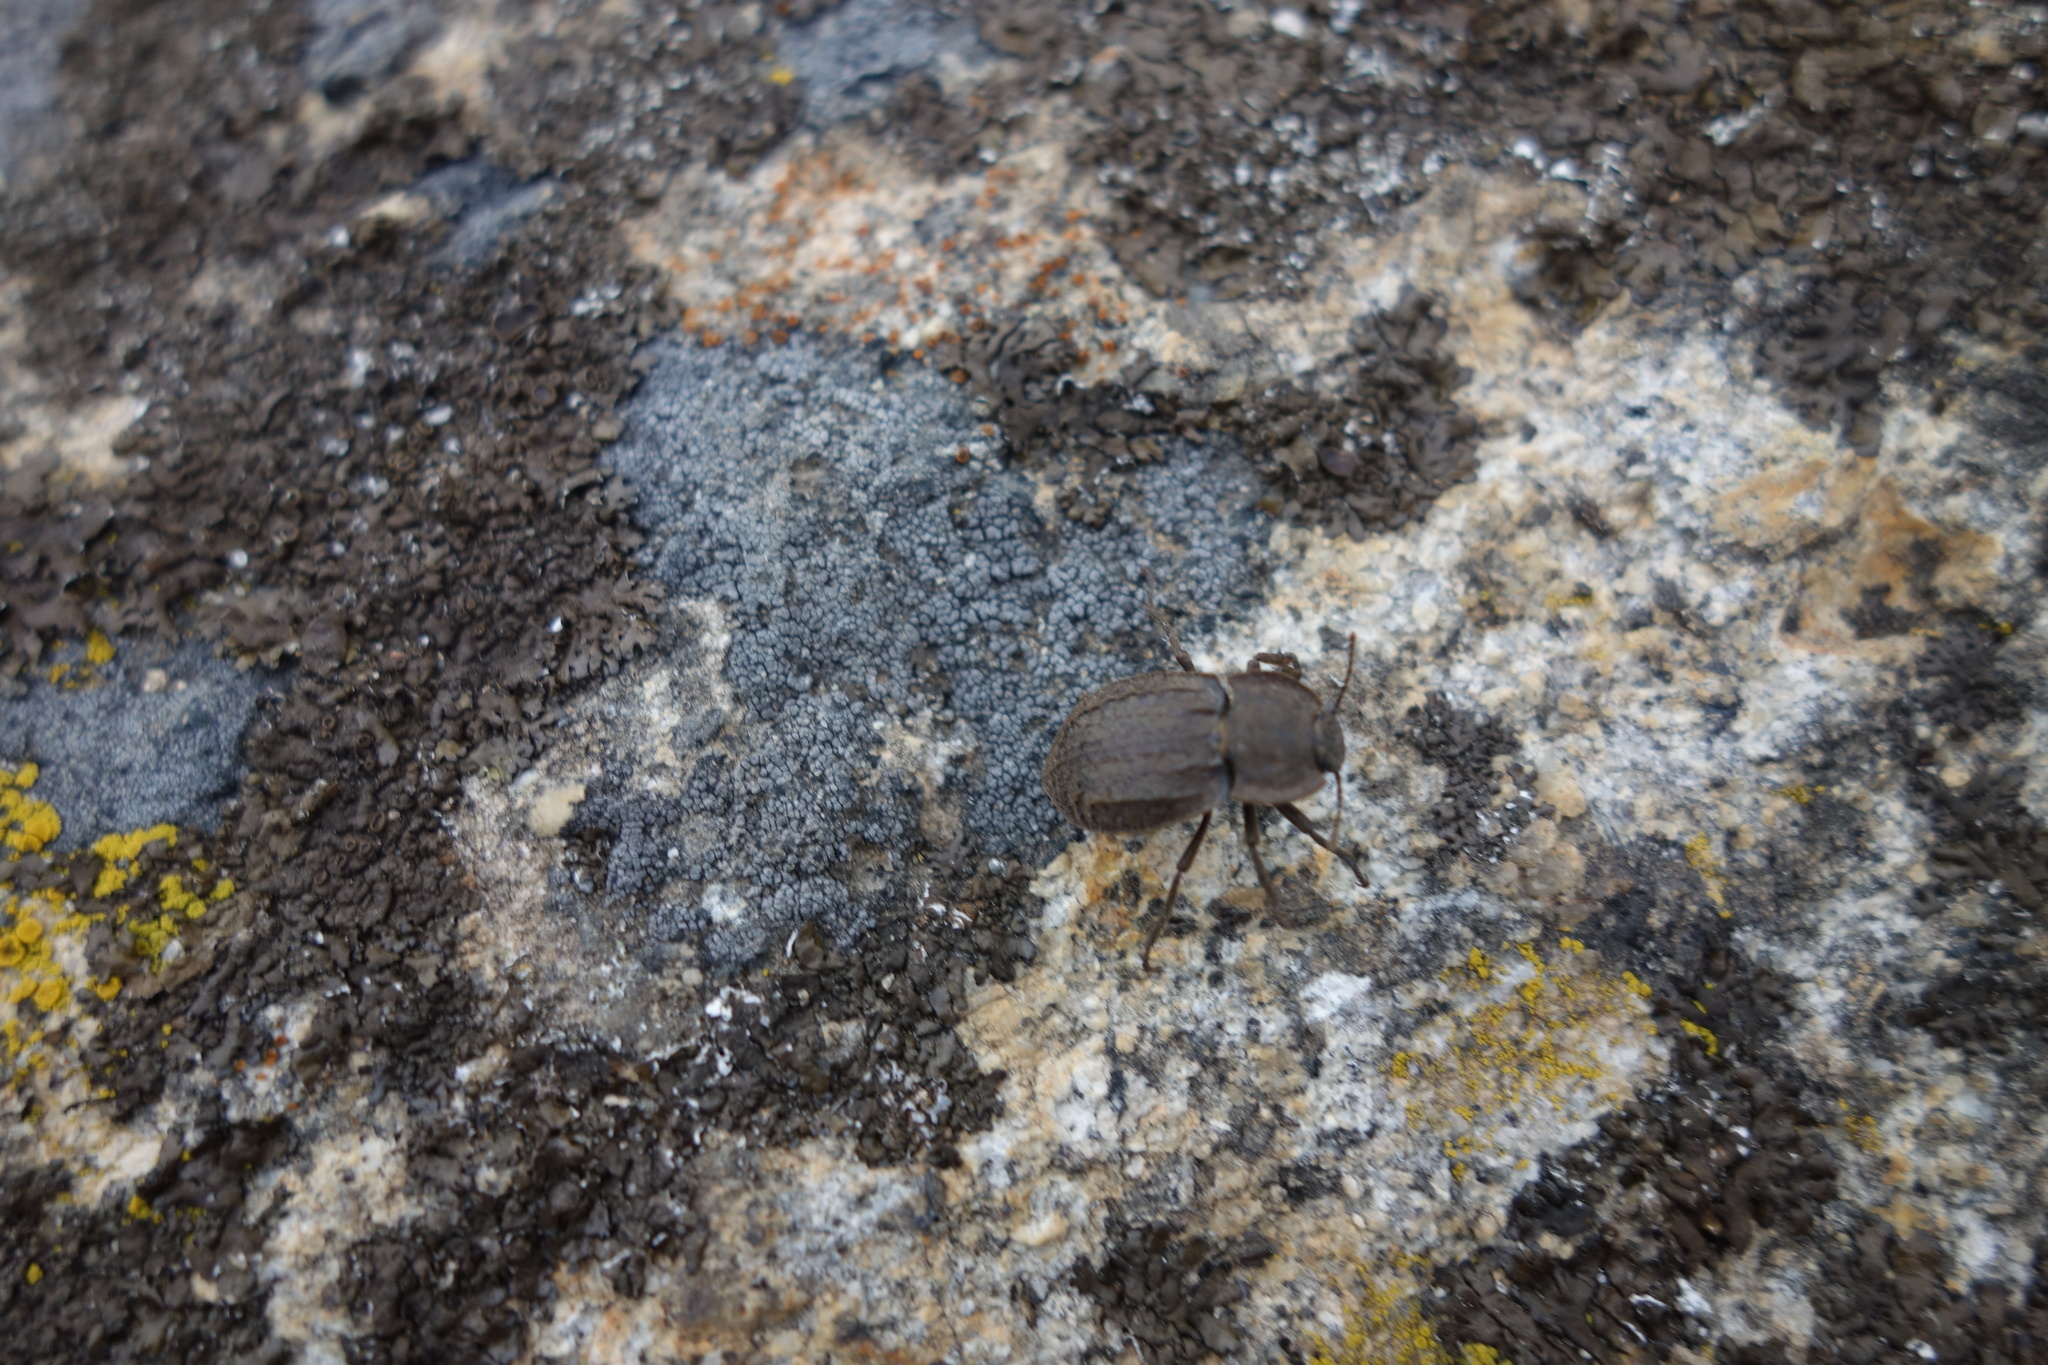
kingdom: Animalia
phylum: Arthropoda
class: Insecta
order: Coleoptera
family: Tenebrionidae
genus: Asida
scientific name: Asida gestroi
